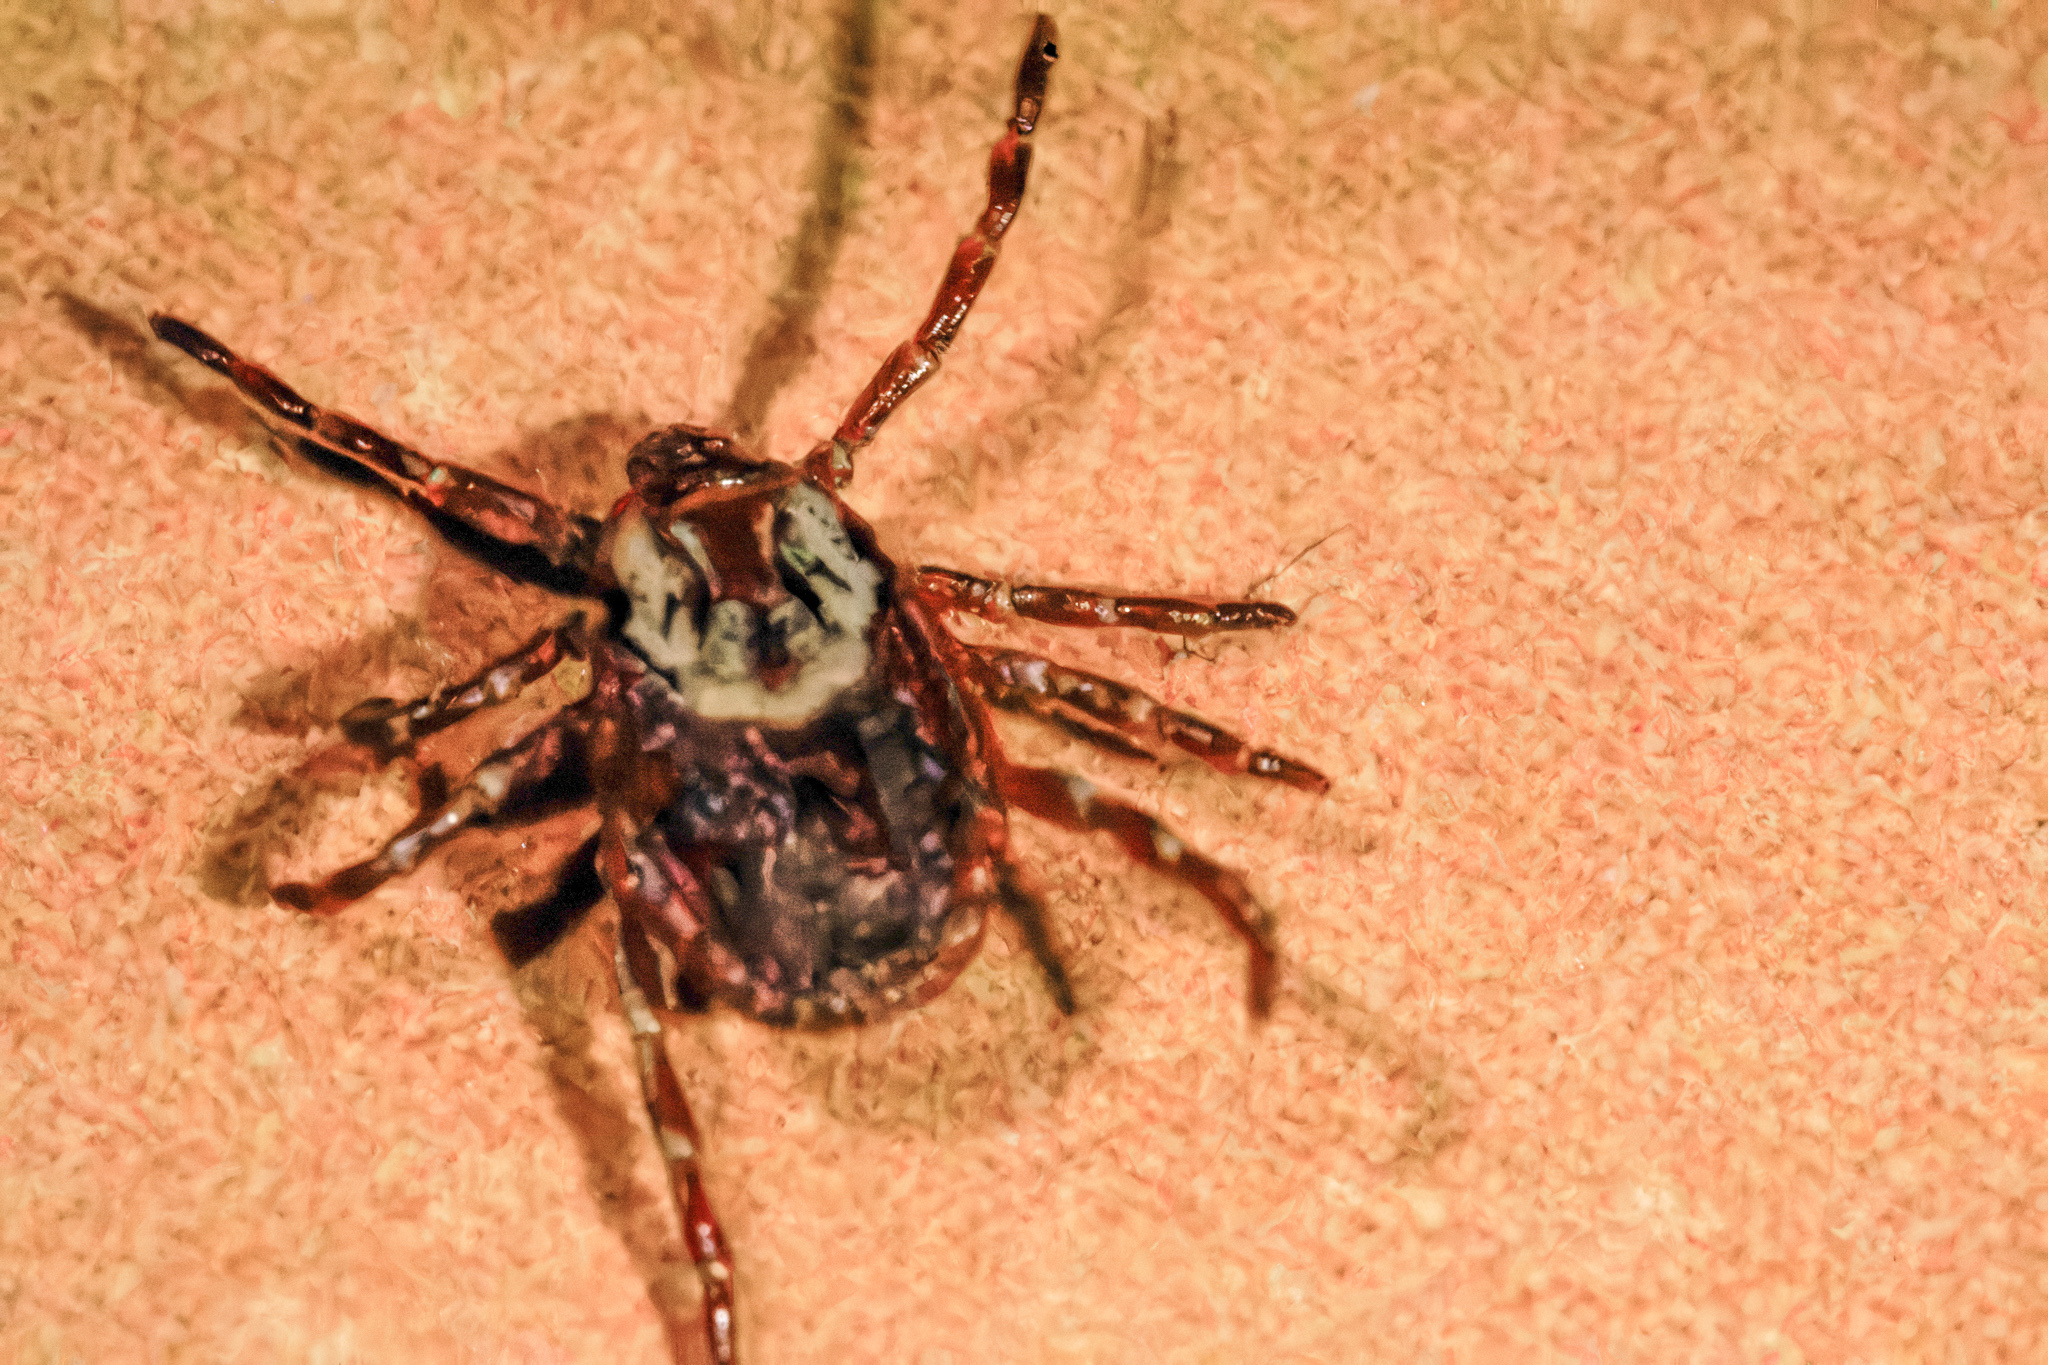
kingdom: Animalia
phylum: Arthropoda
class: Arachnida
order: Ixodida
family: Ixodidae
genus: Dermacentor
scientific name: Dermacentor variabilis
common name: American dog tick
